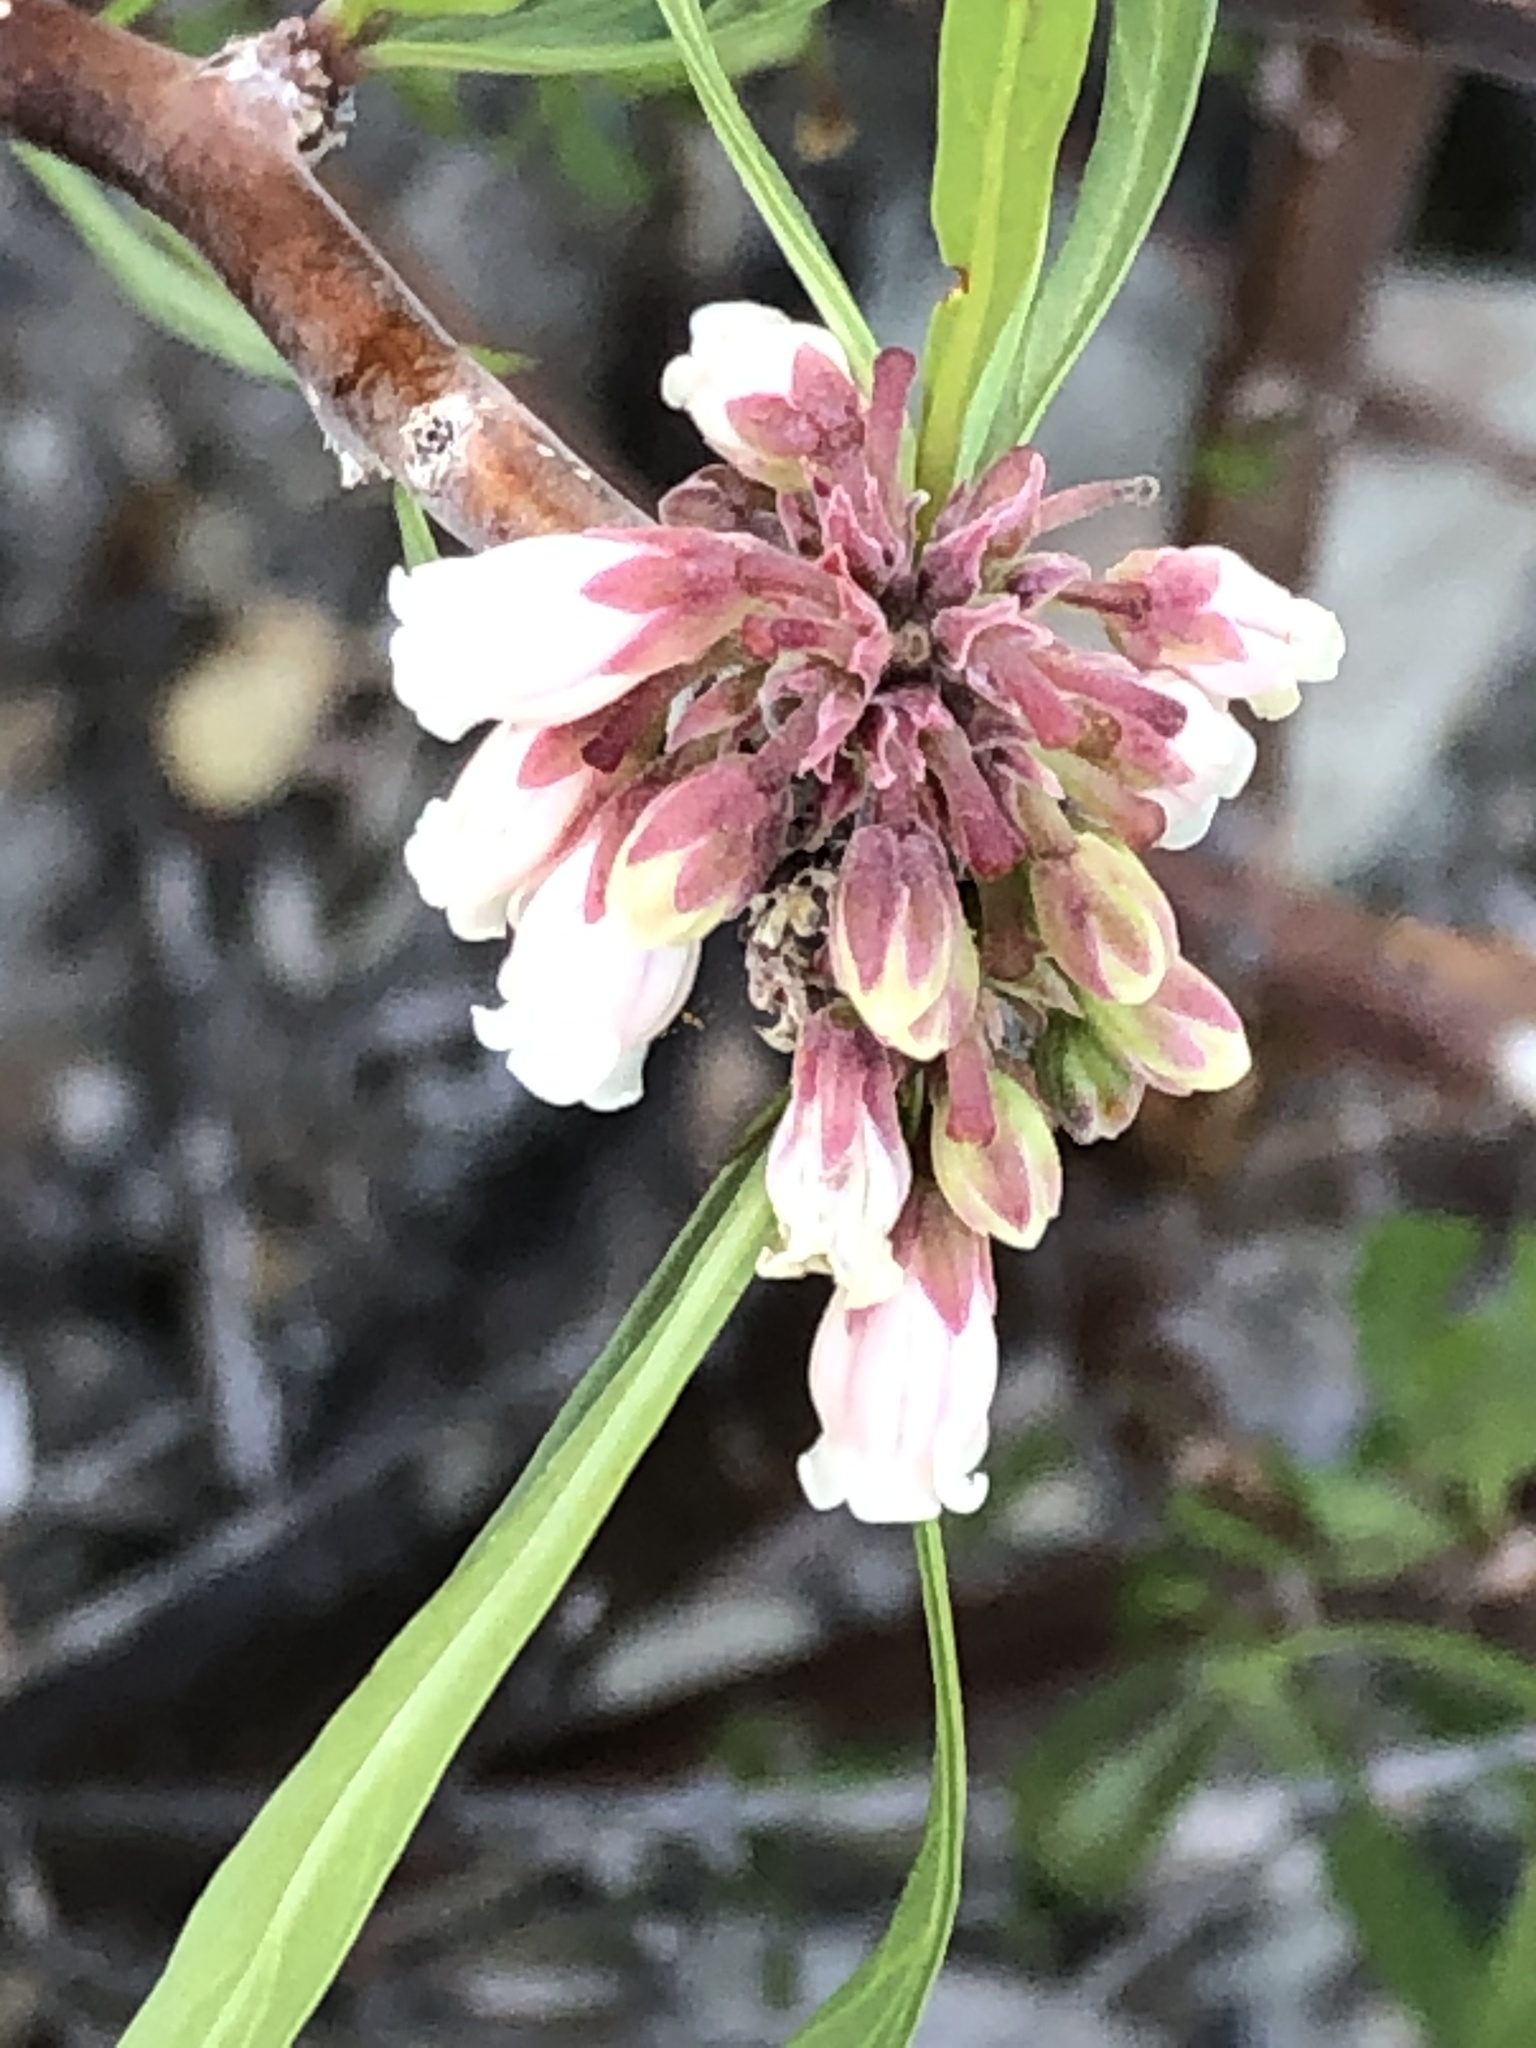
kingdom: Plantae
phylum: Tracheophyta
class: Magnoliopsida
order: Malpighiales
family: Euphorbiaceae
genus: Jatropha
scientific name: Jatropha dioica
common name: Leatherstem
